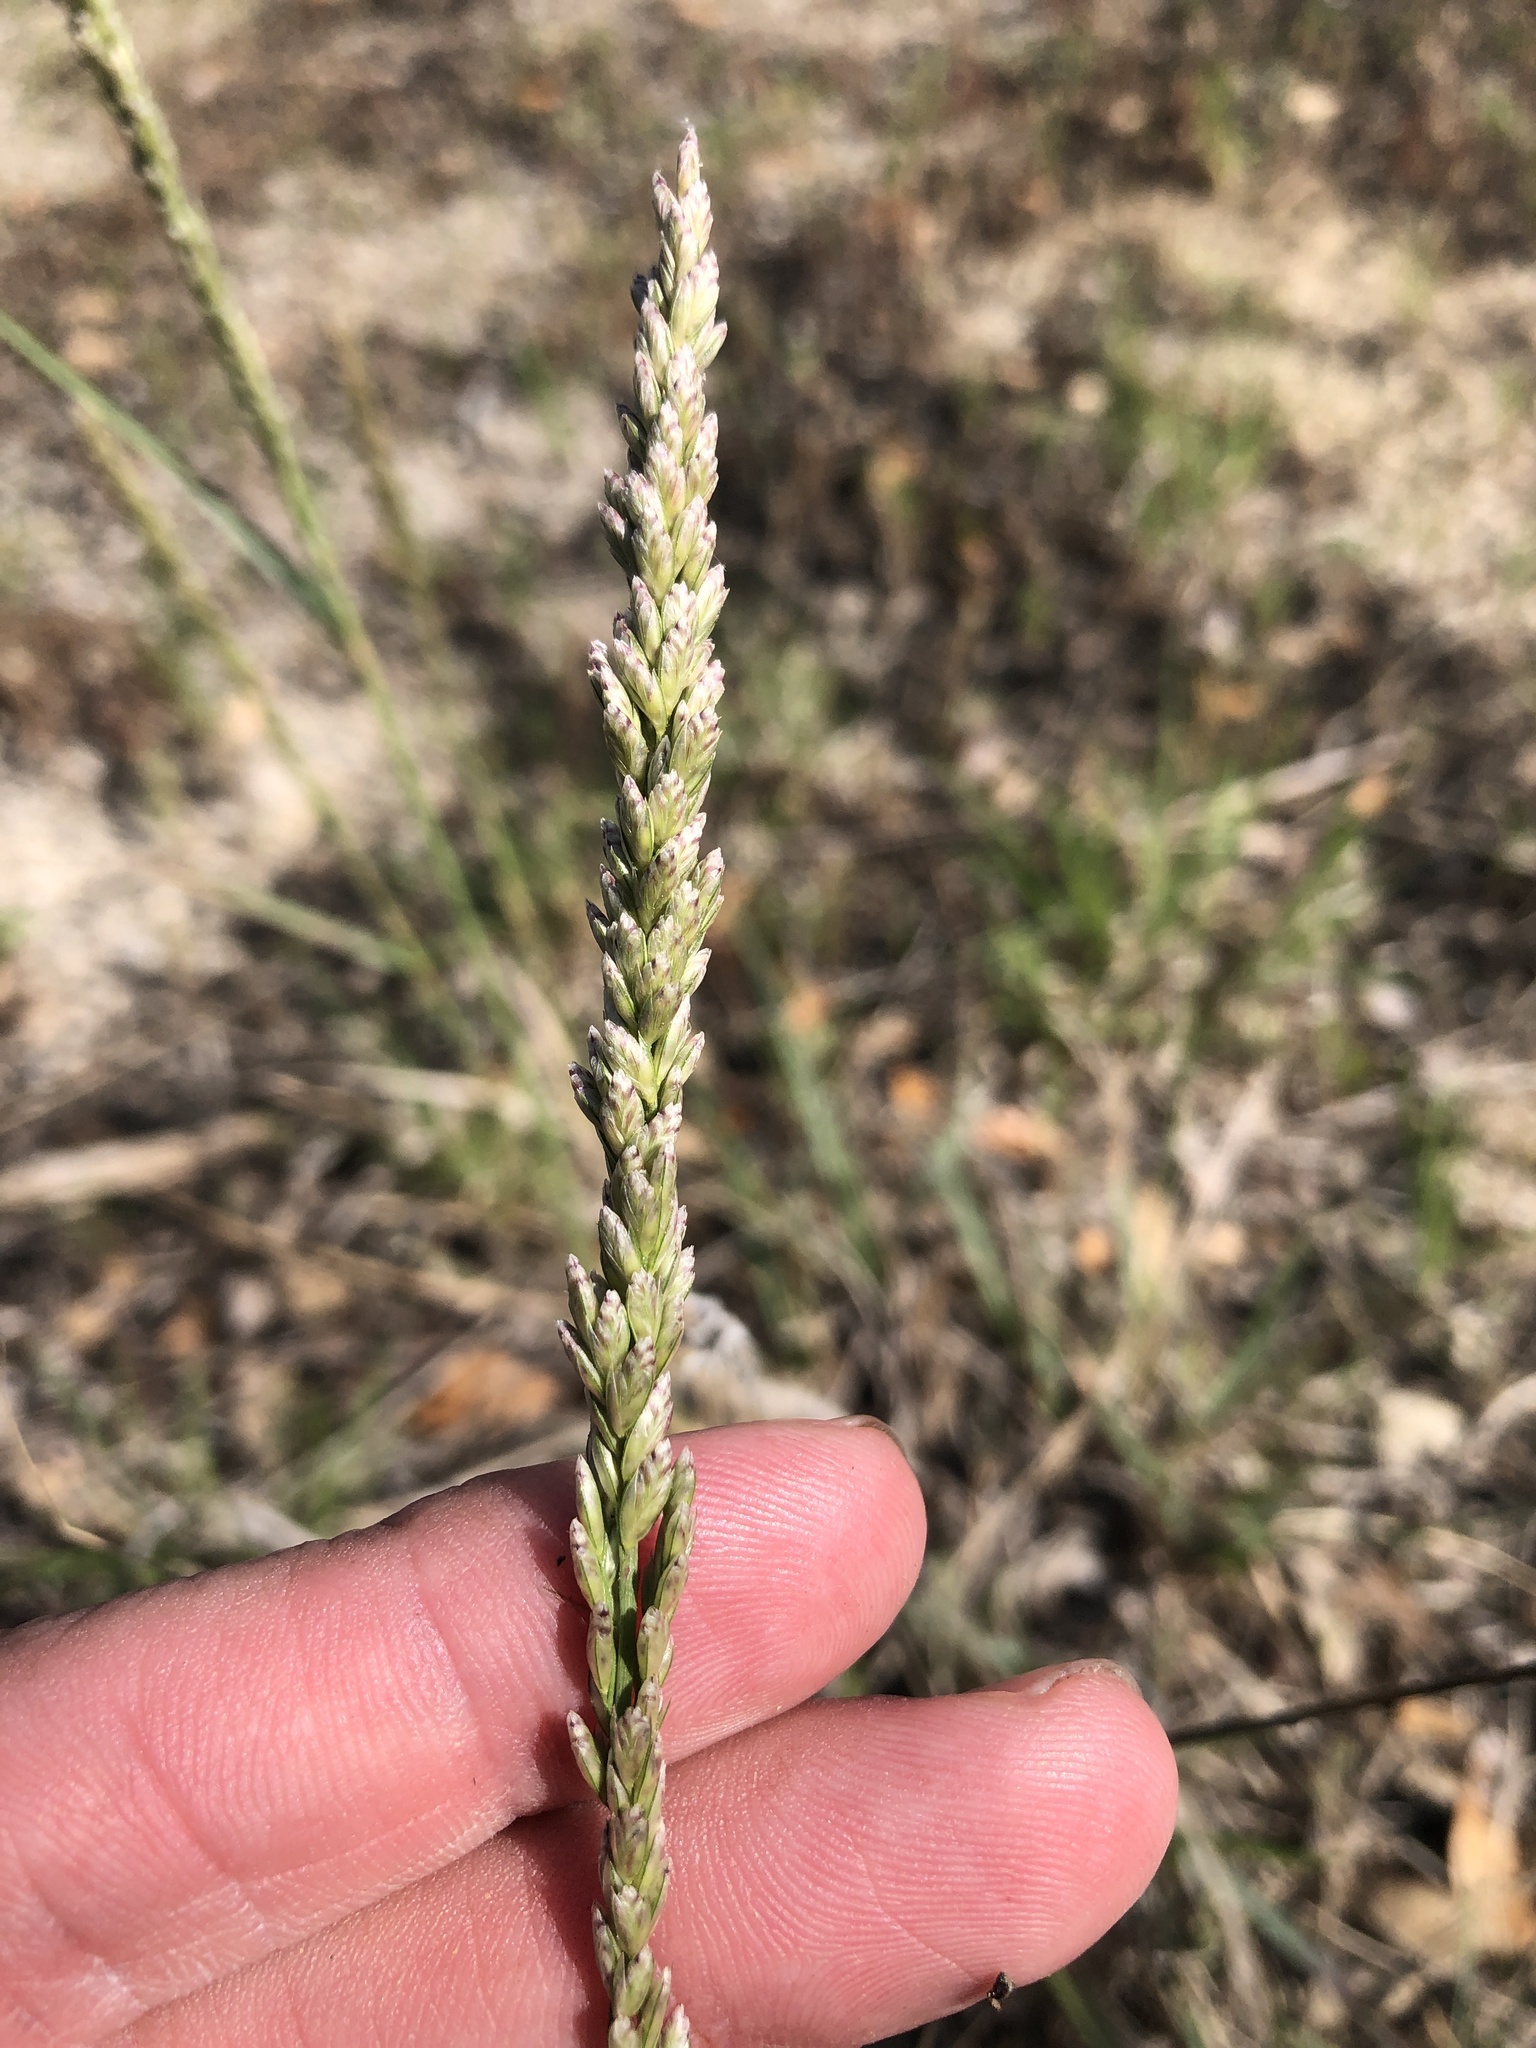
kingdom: Plantae
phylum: Tracheophyta
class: Liliopsida
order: Poales
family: Poaceae
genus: Tridens
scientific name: Tridens albescens
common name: White tridens
